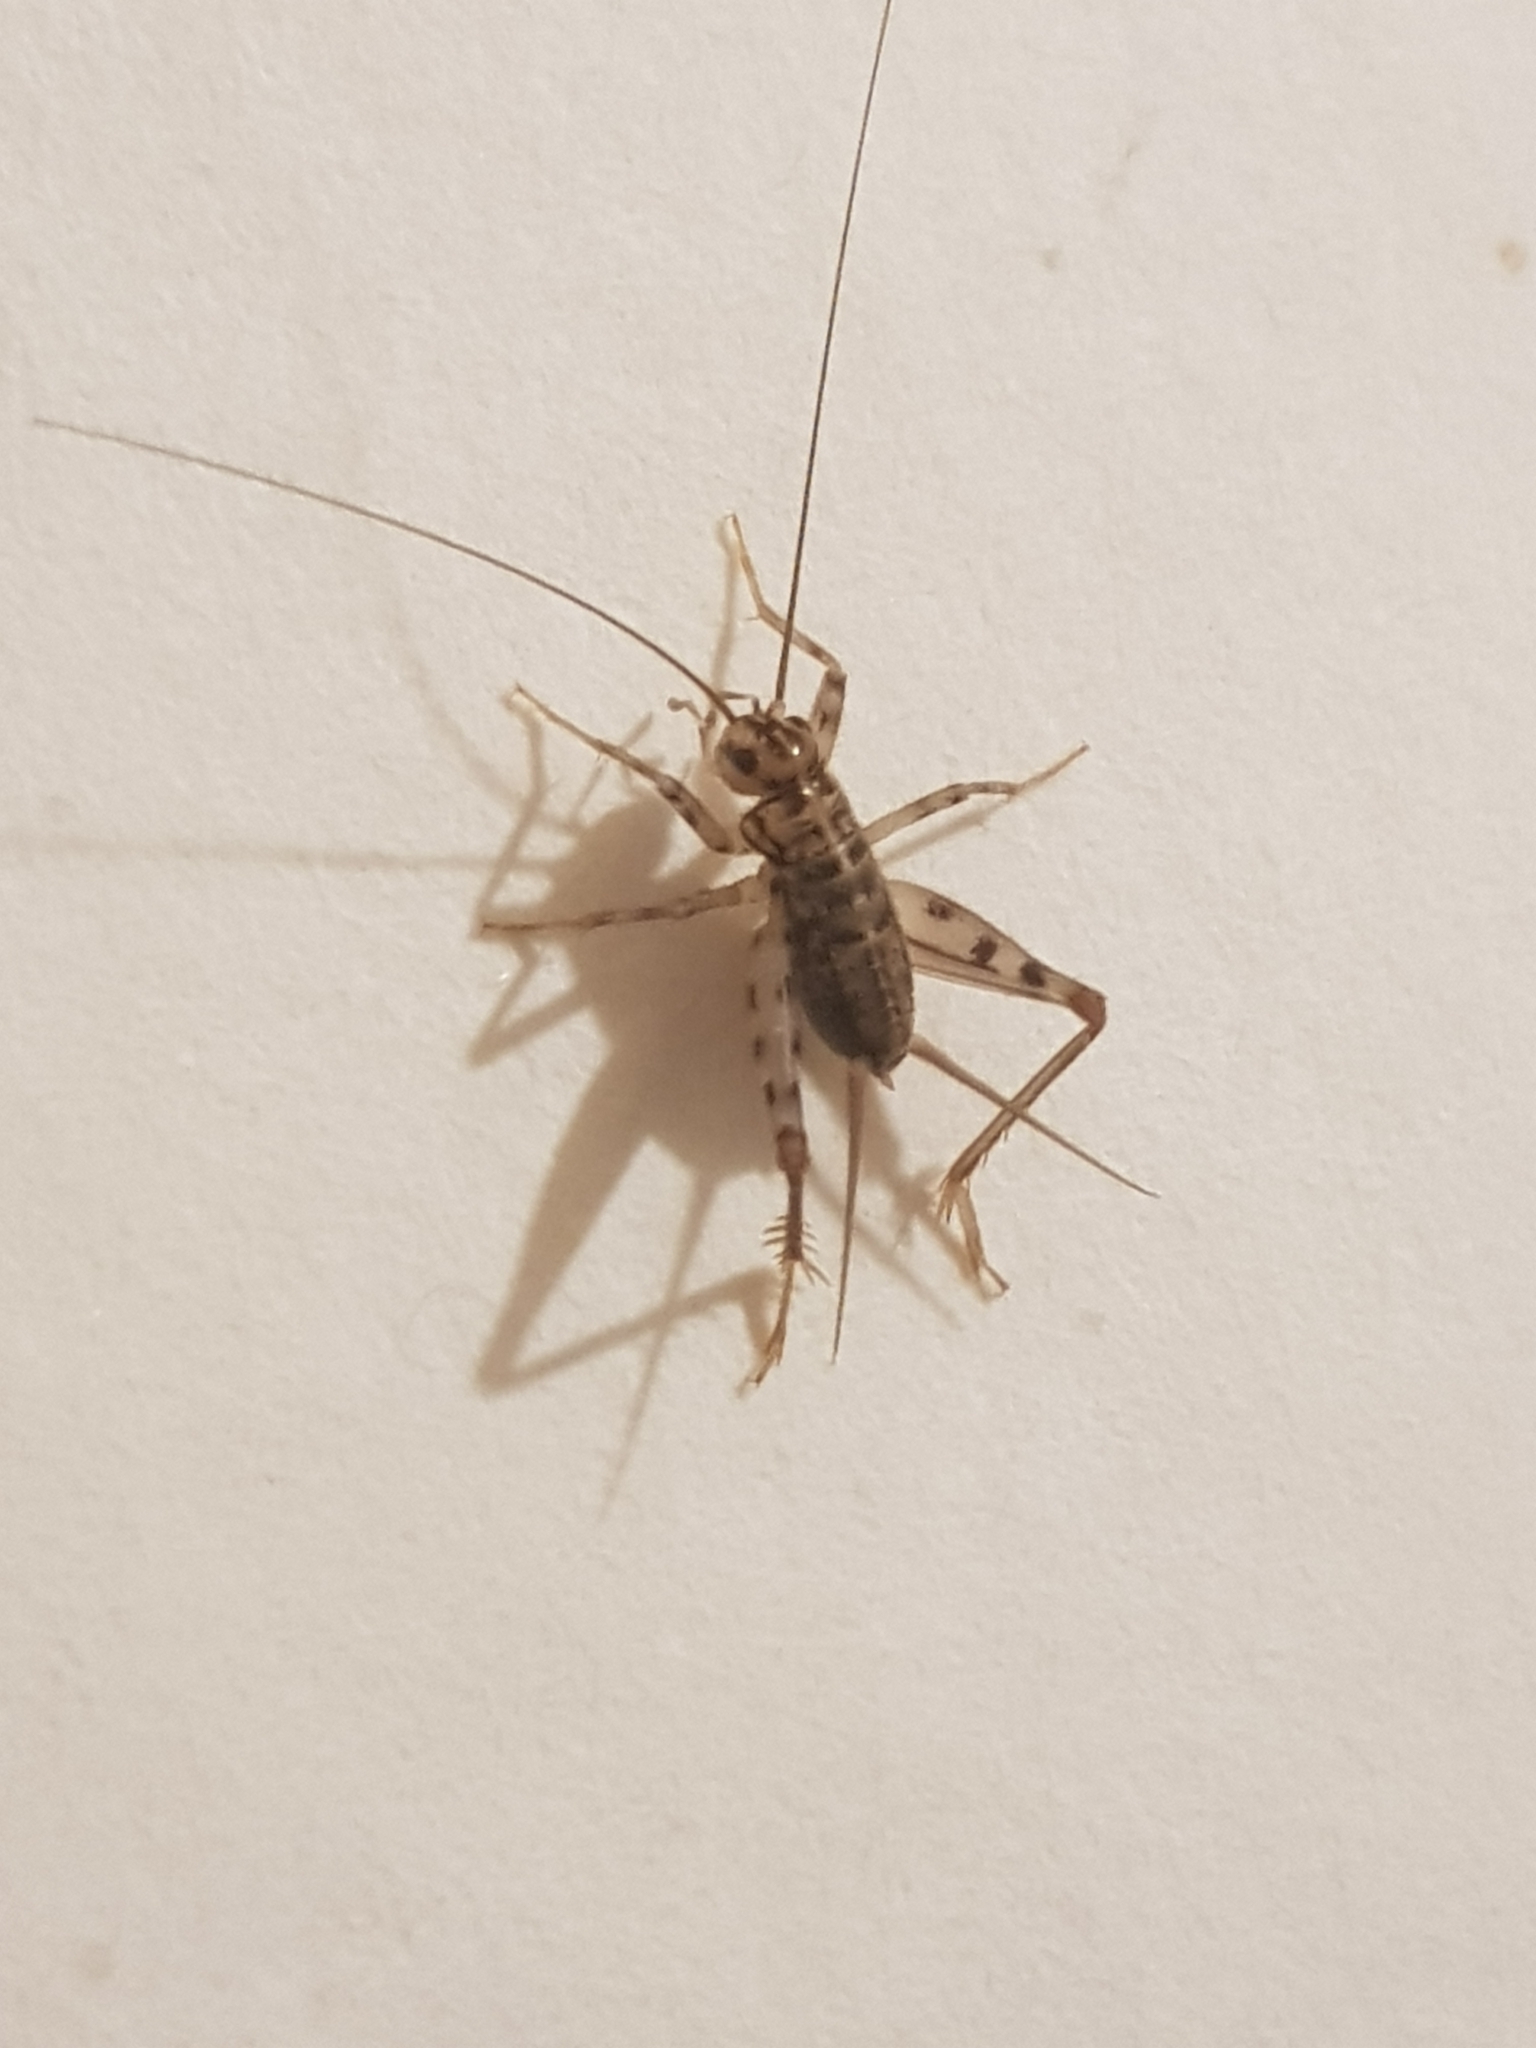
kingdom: Animalia
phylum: Arthropoda
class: Insecta
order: Orthoptera
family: Gryllidae
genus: Gryllomorpha
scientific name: Gryllomorpha dalmatina
